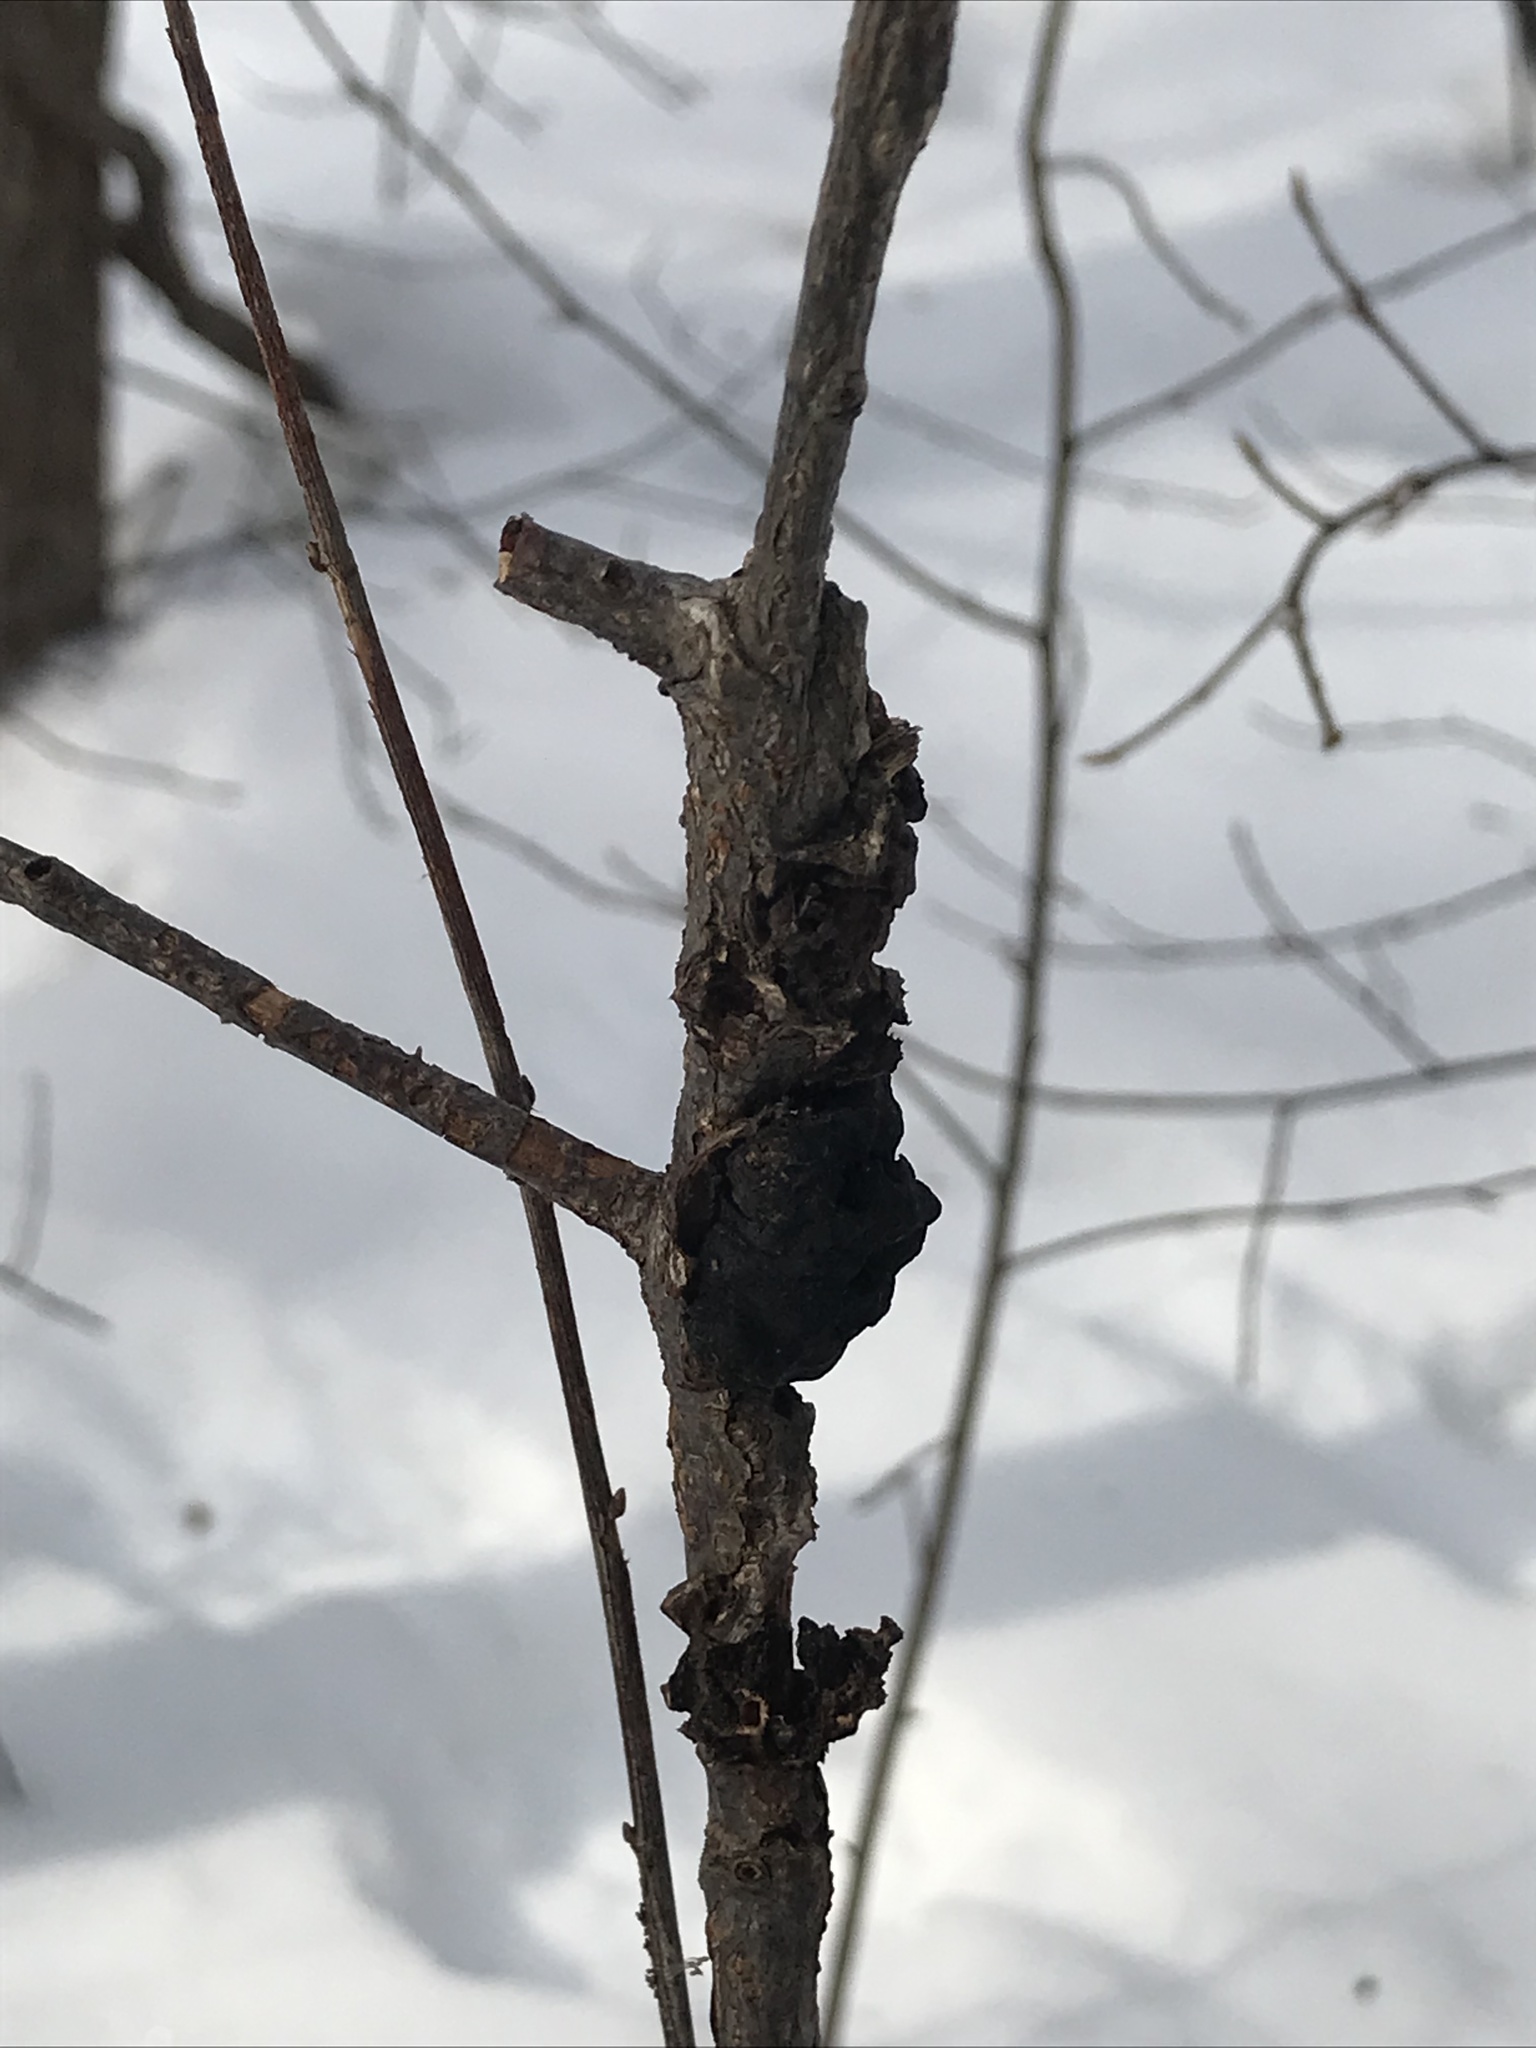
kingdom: Fungi
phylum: Ascomycota
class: Dothideomycetes
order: Venturiales
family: Venturiaceae
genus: Apiosporina
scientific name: Apiosporina morbosa
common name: Black knot
